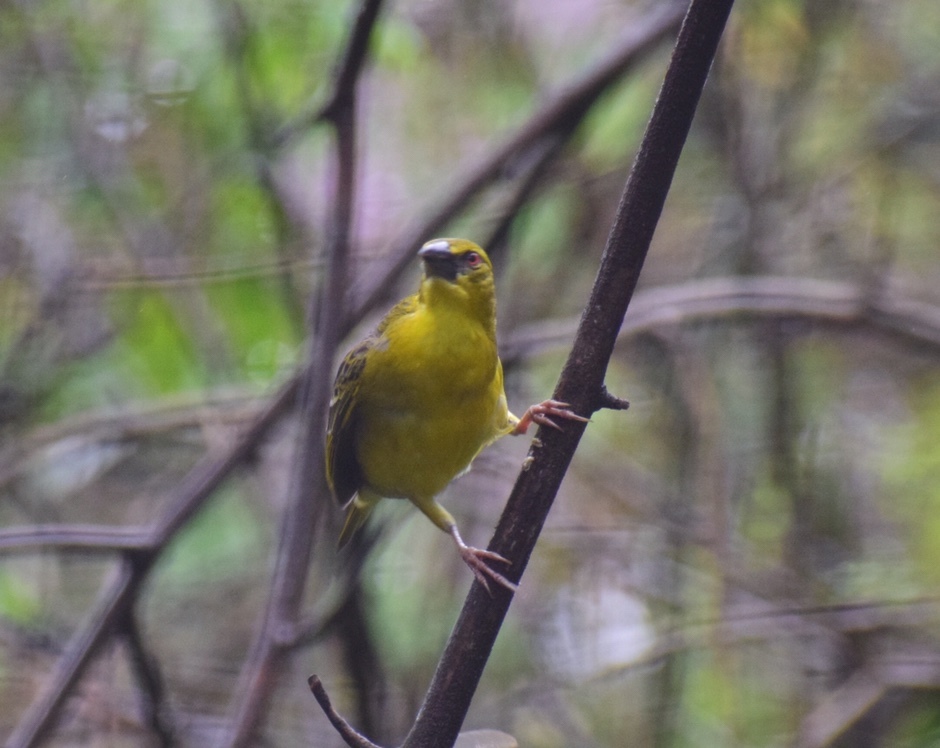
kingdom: Animalia
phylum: Chordata
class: Aves
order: Passeriformes
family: Ploceidae
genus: Ploceus
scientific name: Ploceus cucullatus
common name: Village weaver
